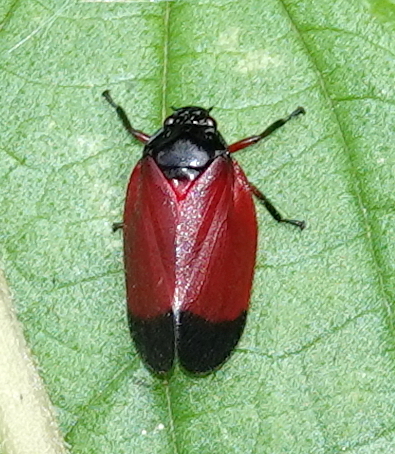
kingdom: Animalia
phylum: Arthropoda
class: Insecta
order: Hemiptera
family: Cercopidae
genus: Sphenorhina
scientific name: Sphenorhina conspicua
